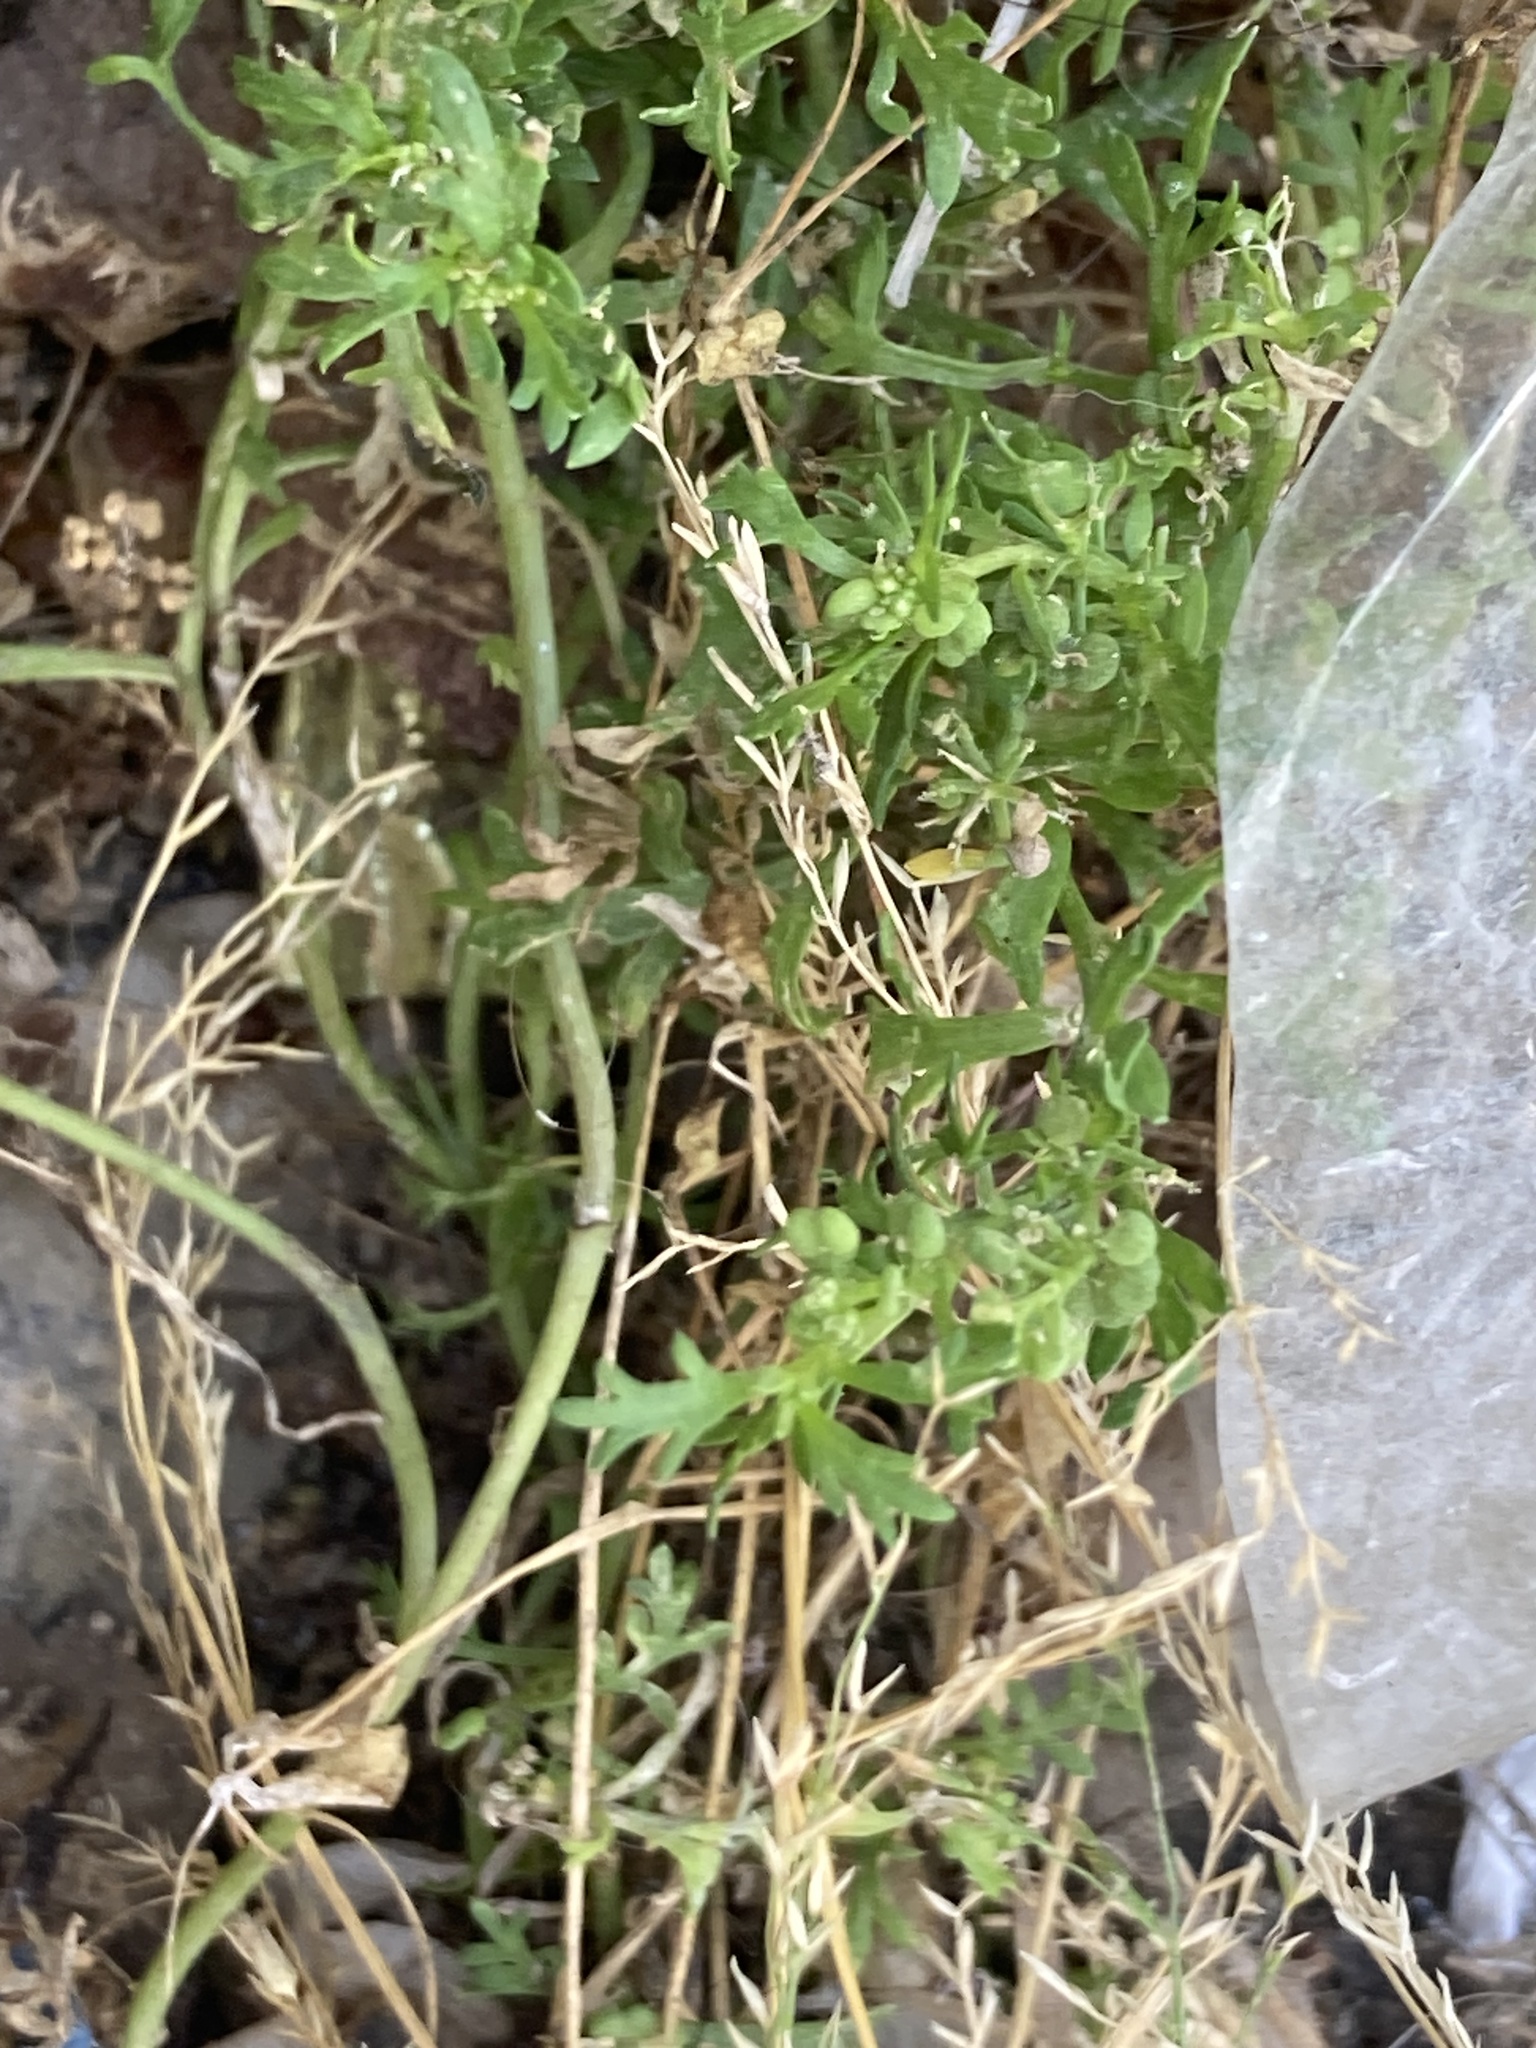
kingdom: Plantae
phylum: Tracheophyta
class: Magnoliopsida
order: Brassicales
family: Brassicaceae
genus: Lepidium
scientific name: Lepidium didymum
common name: Lesser swinecress
